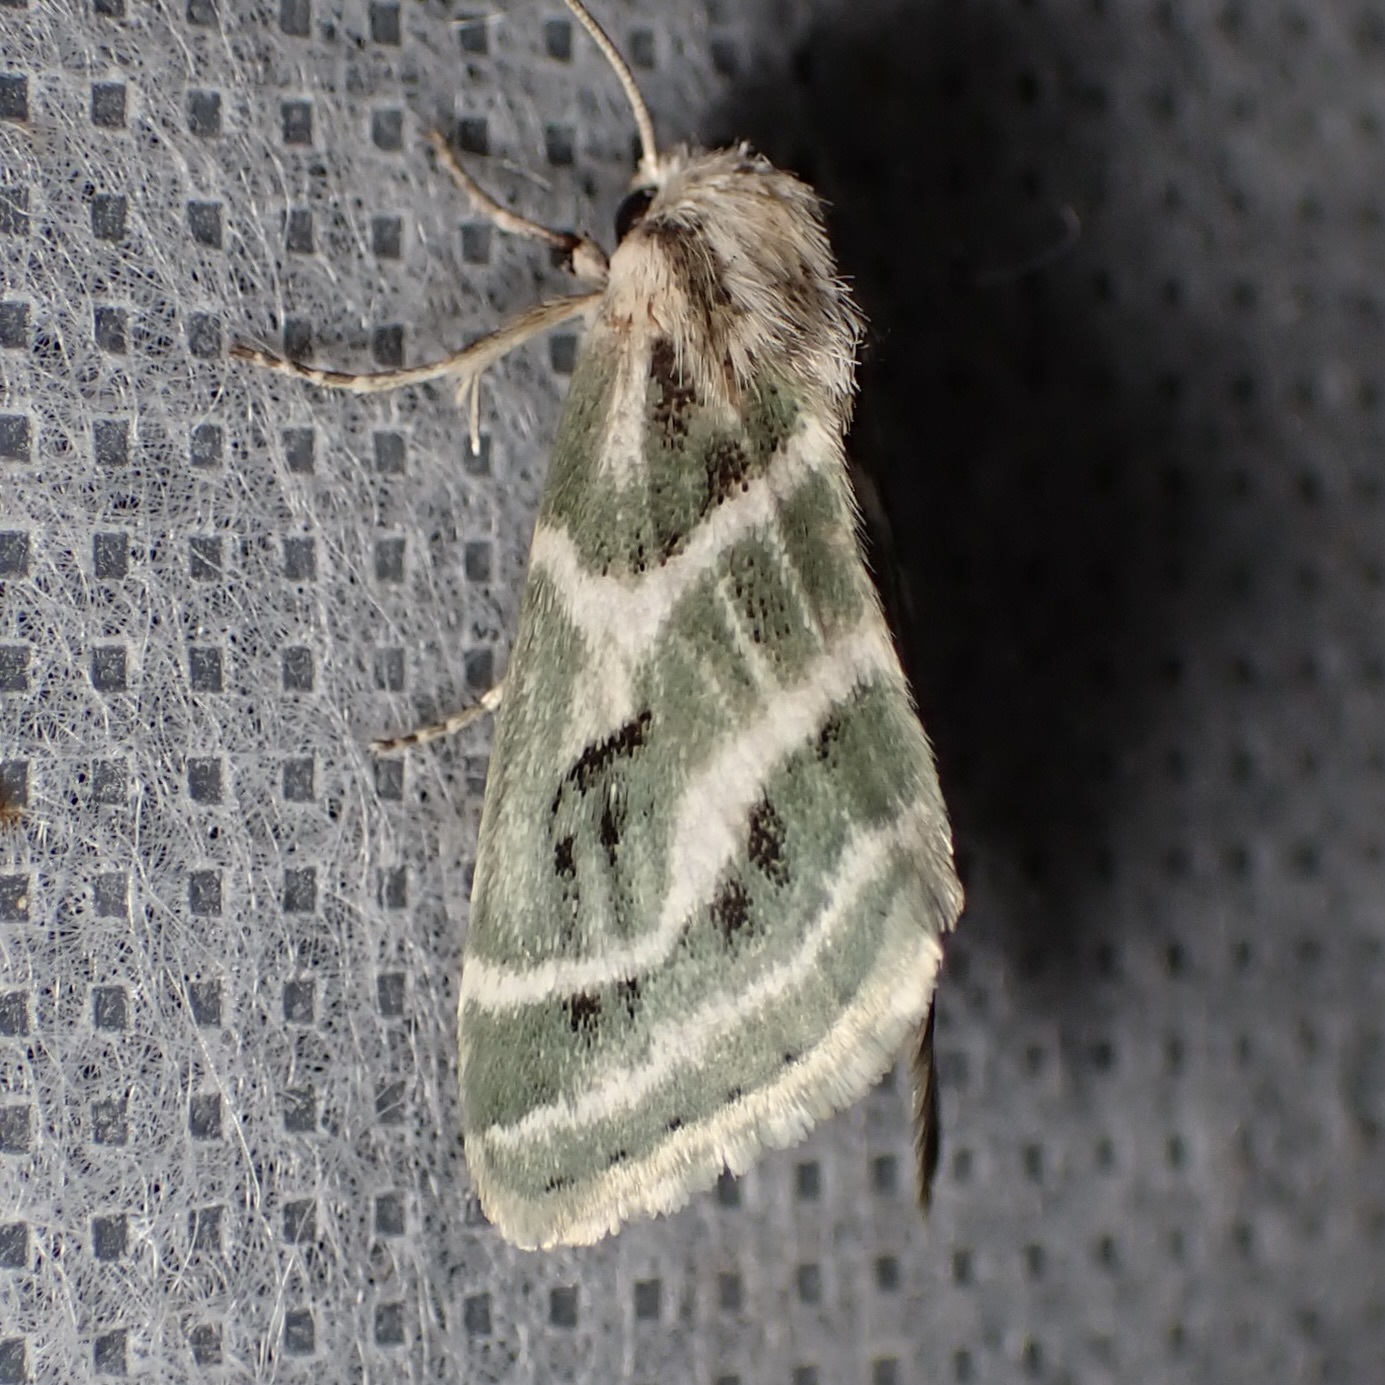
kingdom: Animalia
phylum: Arthropoda
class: Insecta
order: Lepidoptera
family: Noctuidae
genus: Schinia
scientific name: Schinia accessa
